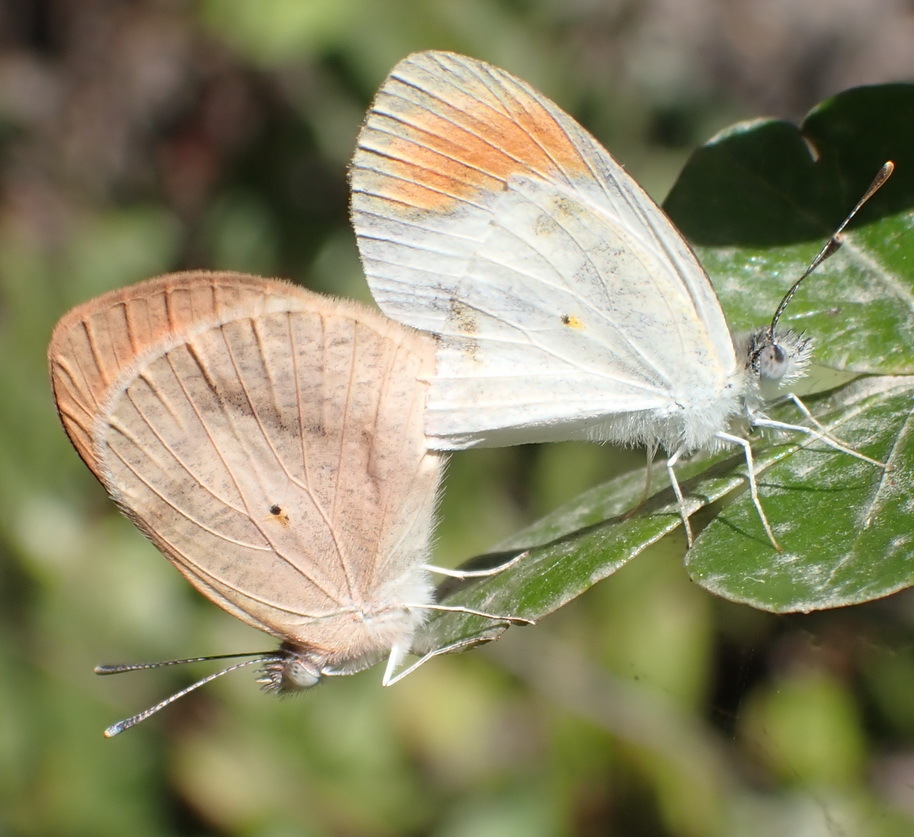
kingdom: Animalia
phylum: Arthropoda
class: Insecta
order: Lepidoptera
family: Pieridae
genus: Colotis
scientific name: Colotis euippe
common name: Round-winged orange tip
